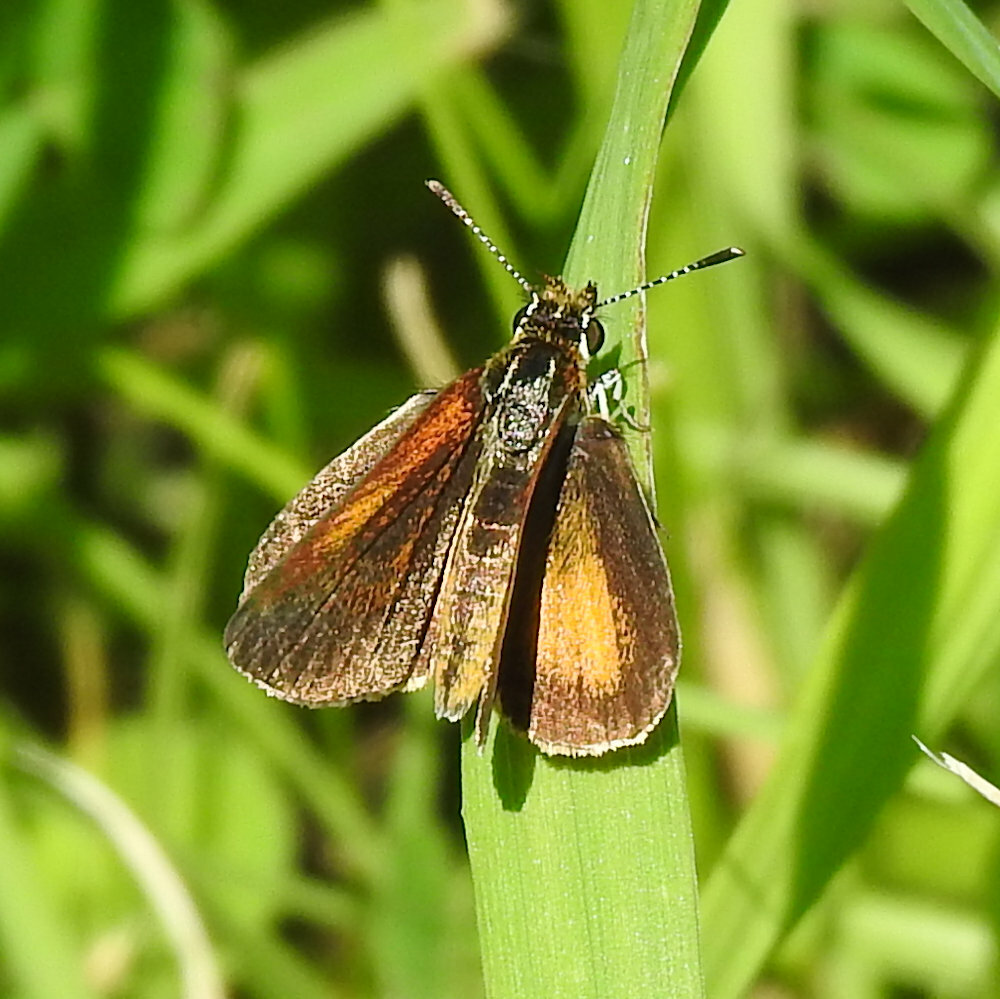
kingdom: Animalia
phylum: Arthropoda
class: Insecta
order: Lepidoptera
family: Hesperiidae
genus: Ancyloxypha
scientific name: Ancyloxypha numitor
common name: Least skipper
